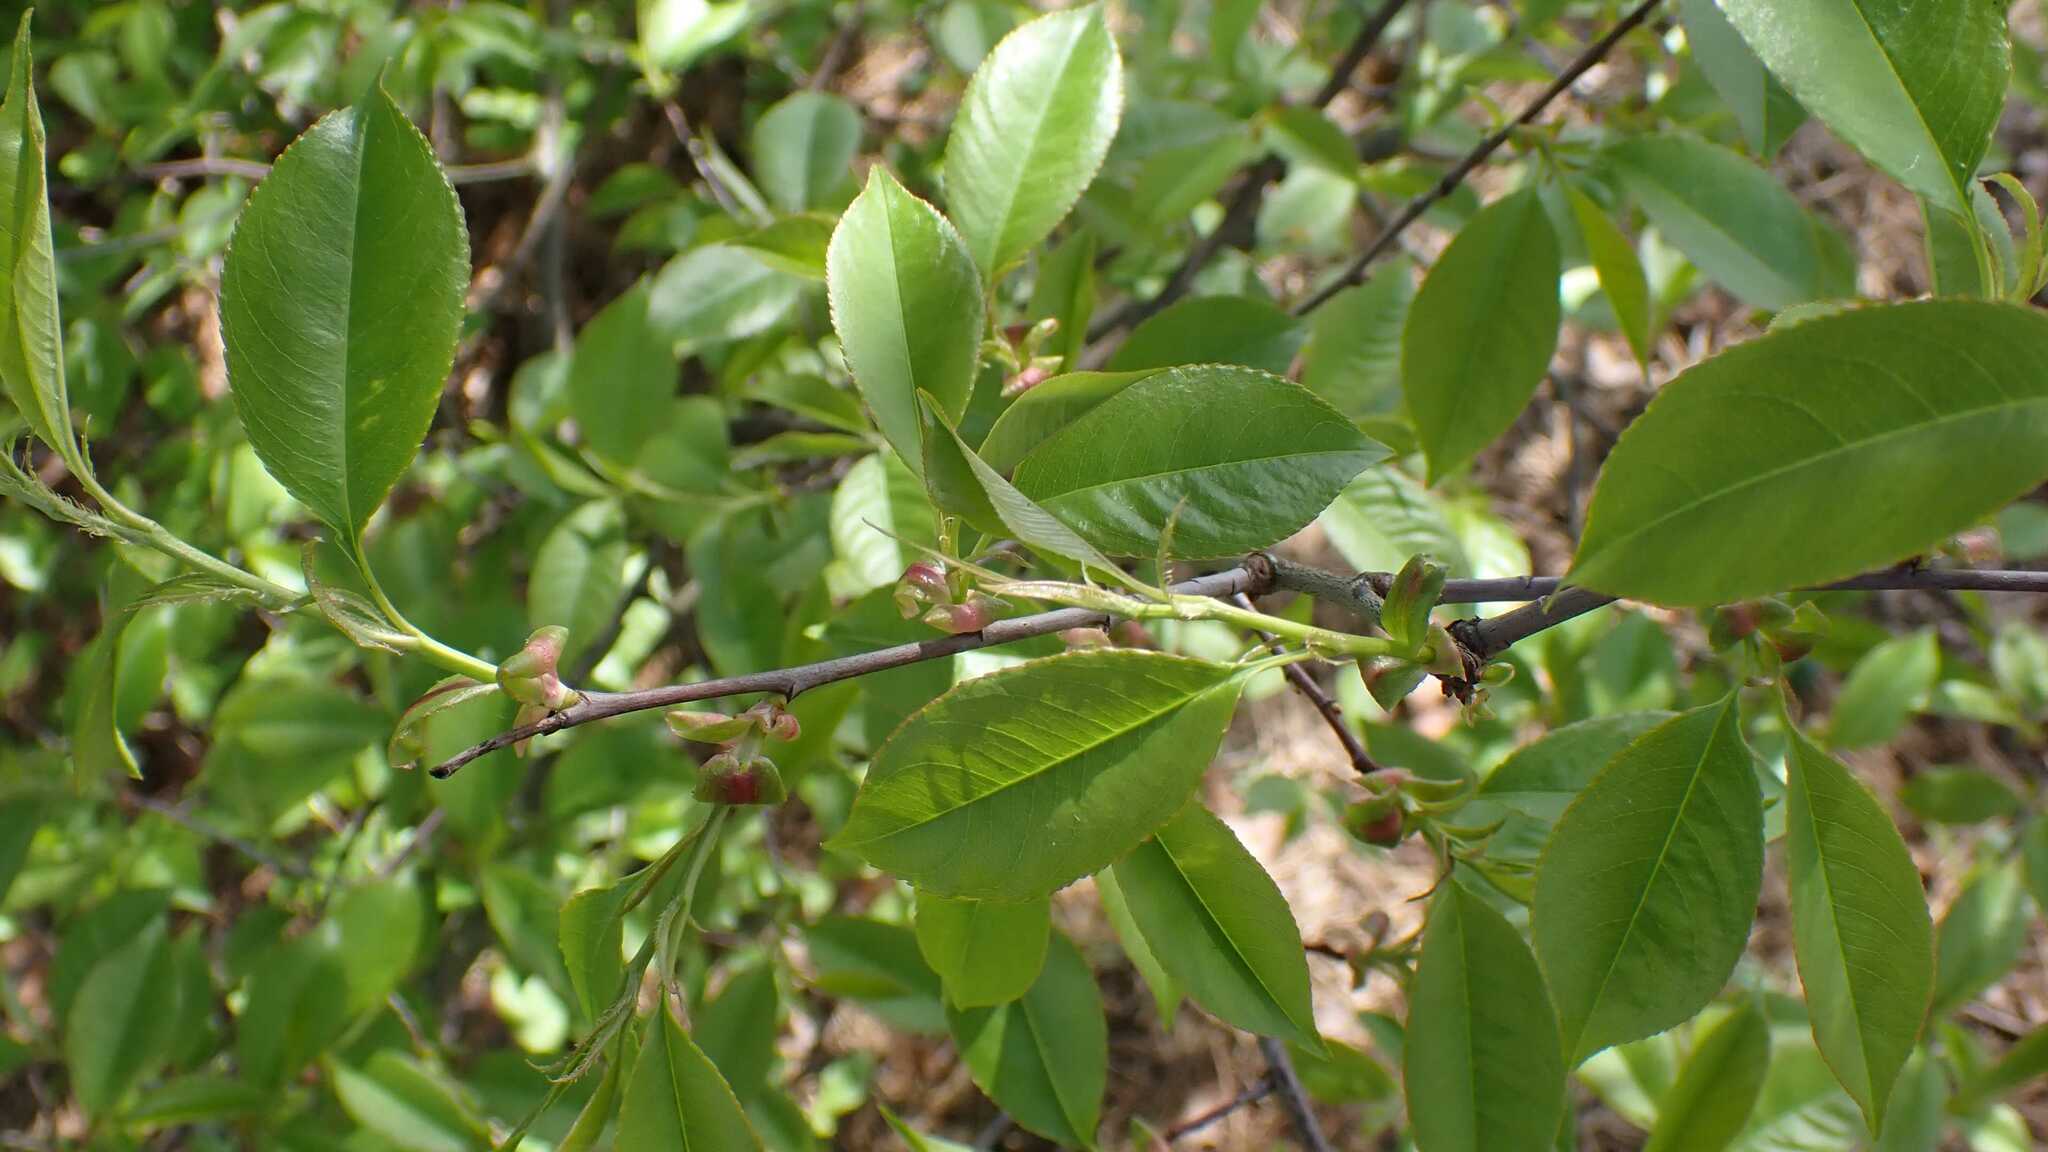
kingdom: Plantae
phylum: Tracheophyta
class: Magnoliopsida
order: Rosales
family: Rosaceae
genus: Prunus
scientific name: Prunus serotina
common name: Black cherry
